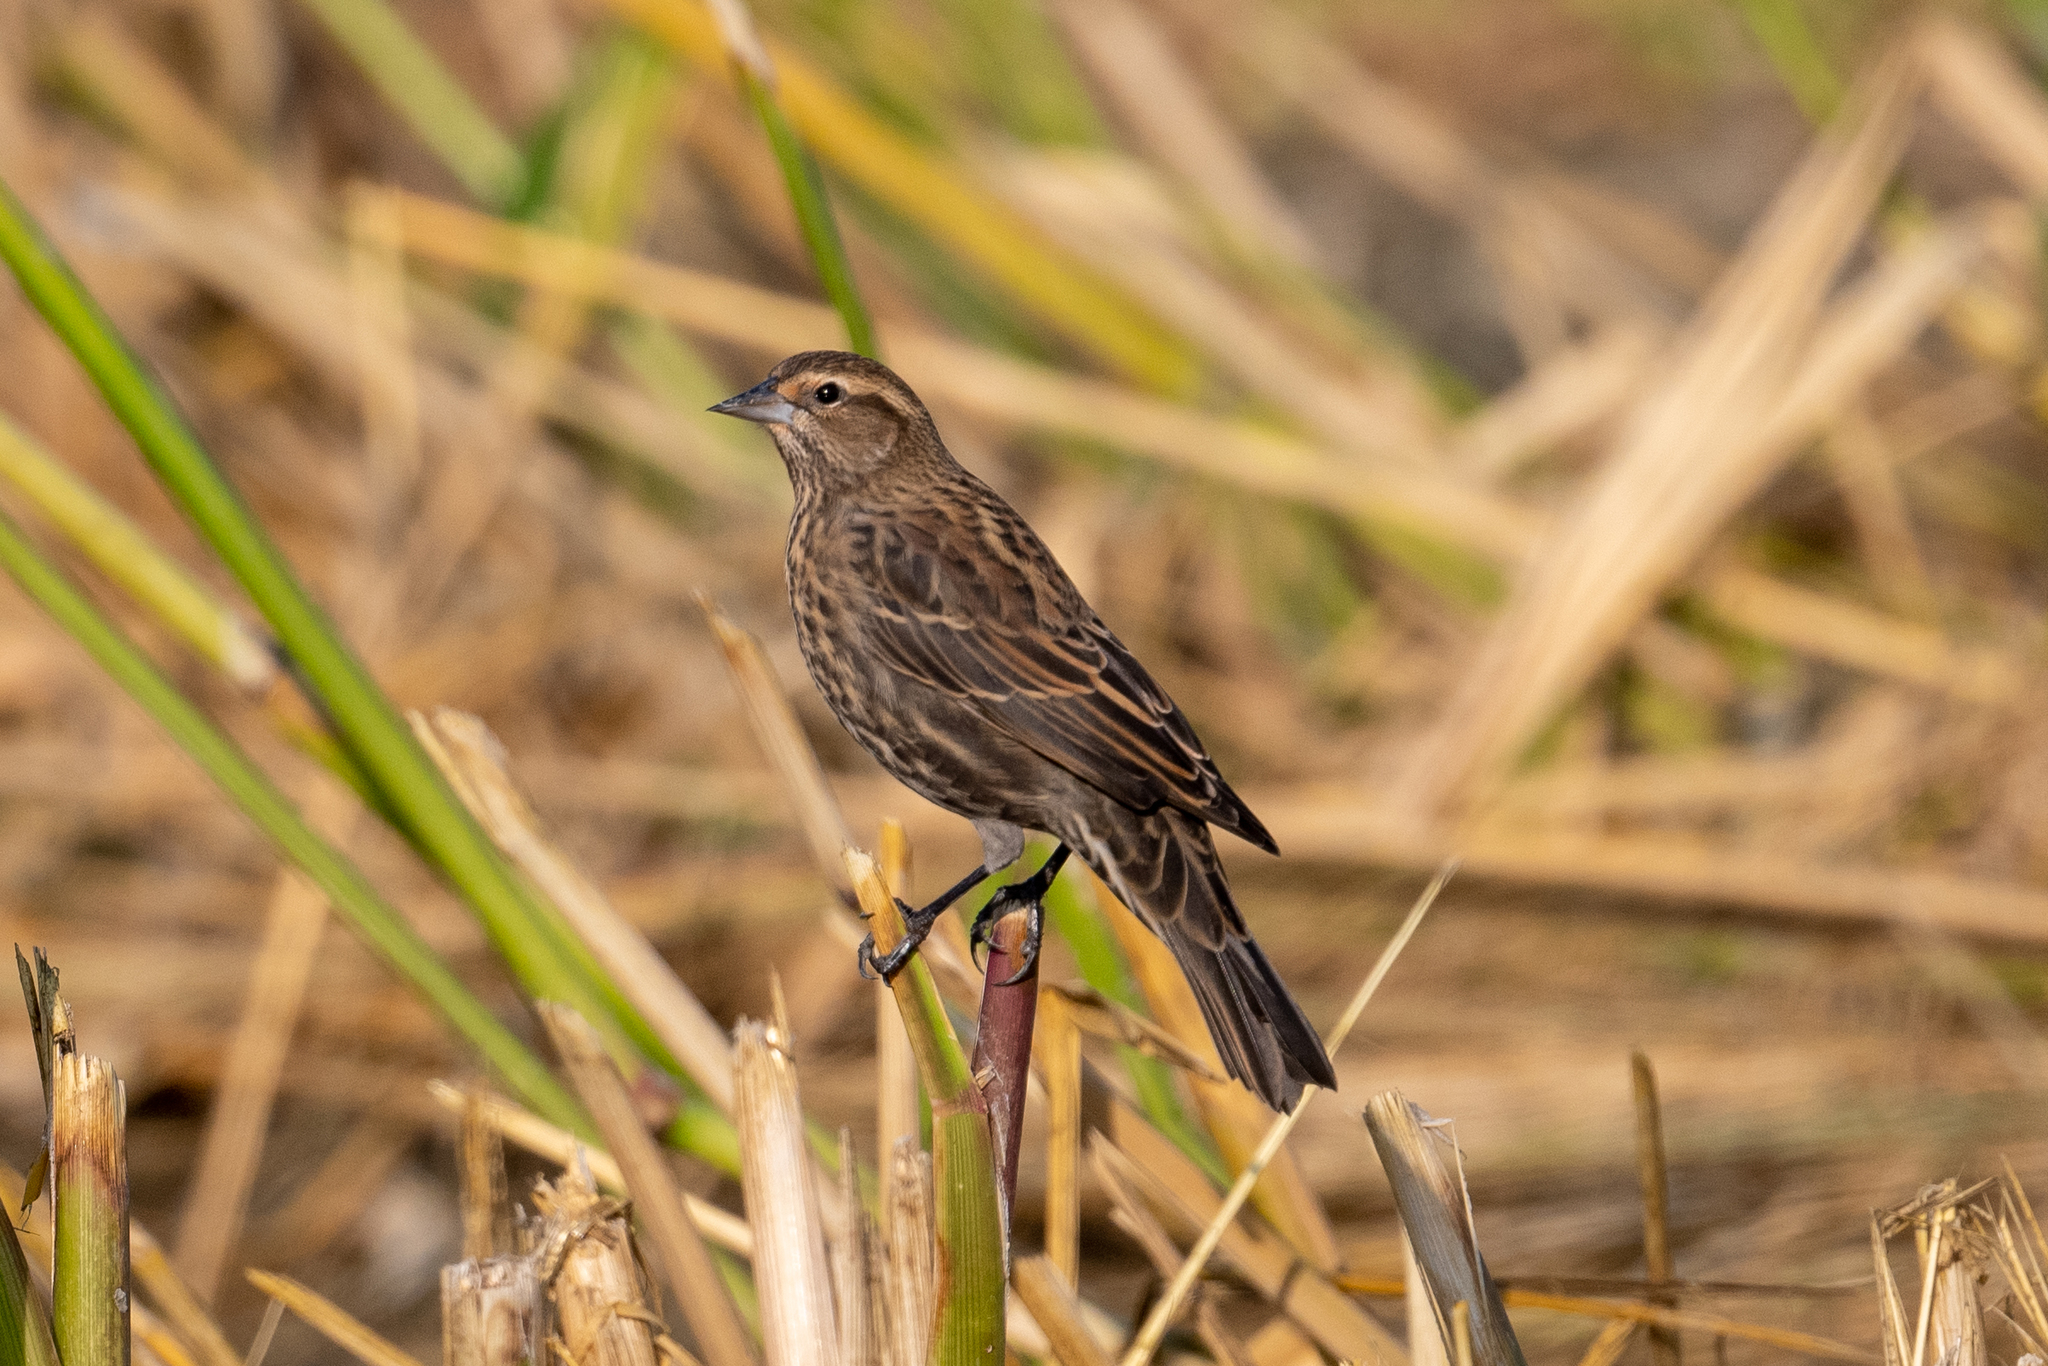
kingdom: Animalia
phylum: Chordata
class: Aves
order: Passeriformes
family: Icteridae
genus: Agelaius
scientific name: Agelaius phoeniceus
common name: Red-winged blackbird
